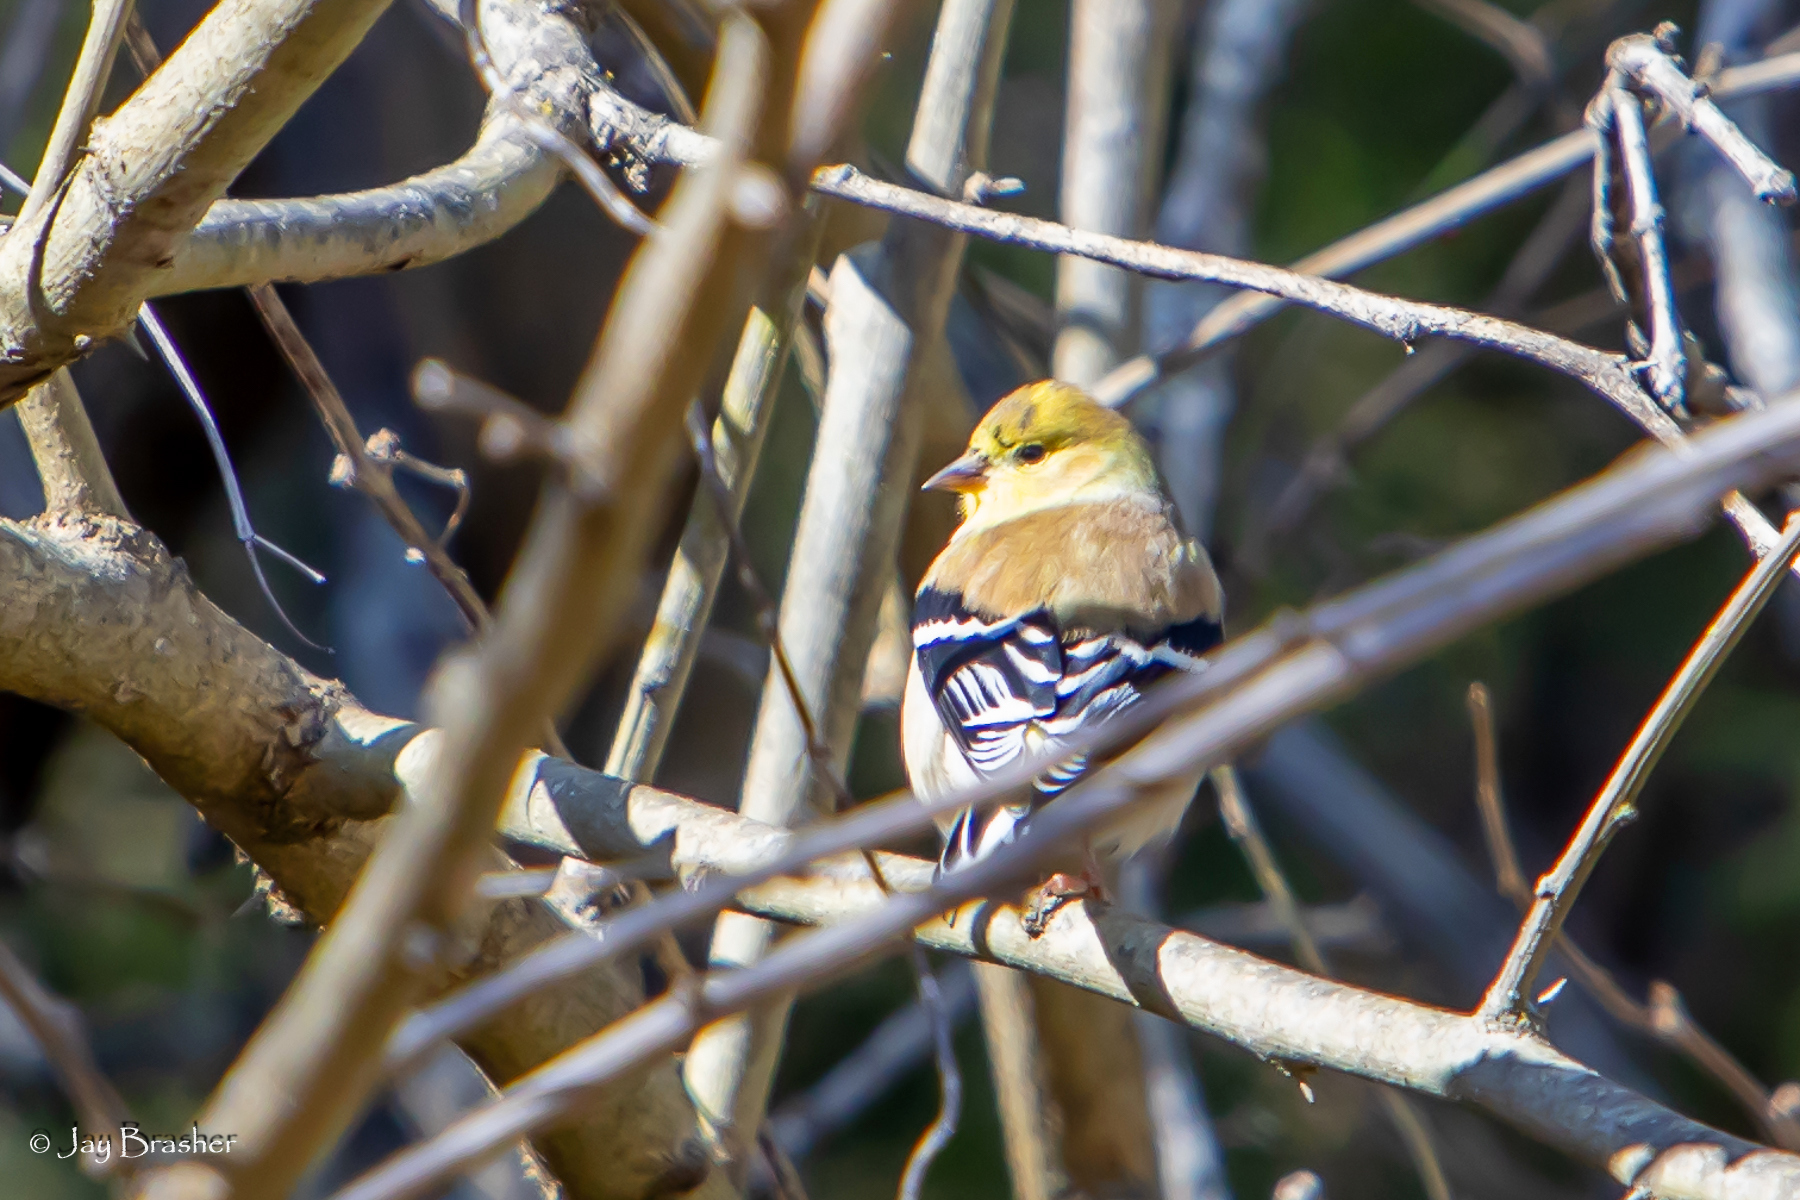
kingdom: Animalia
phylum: Chordata
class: Aves
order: Passeriformes
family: Fringillidae
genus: Spinus
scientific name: Spinus tristis
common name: American goldfinch
